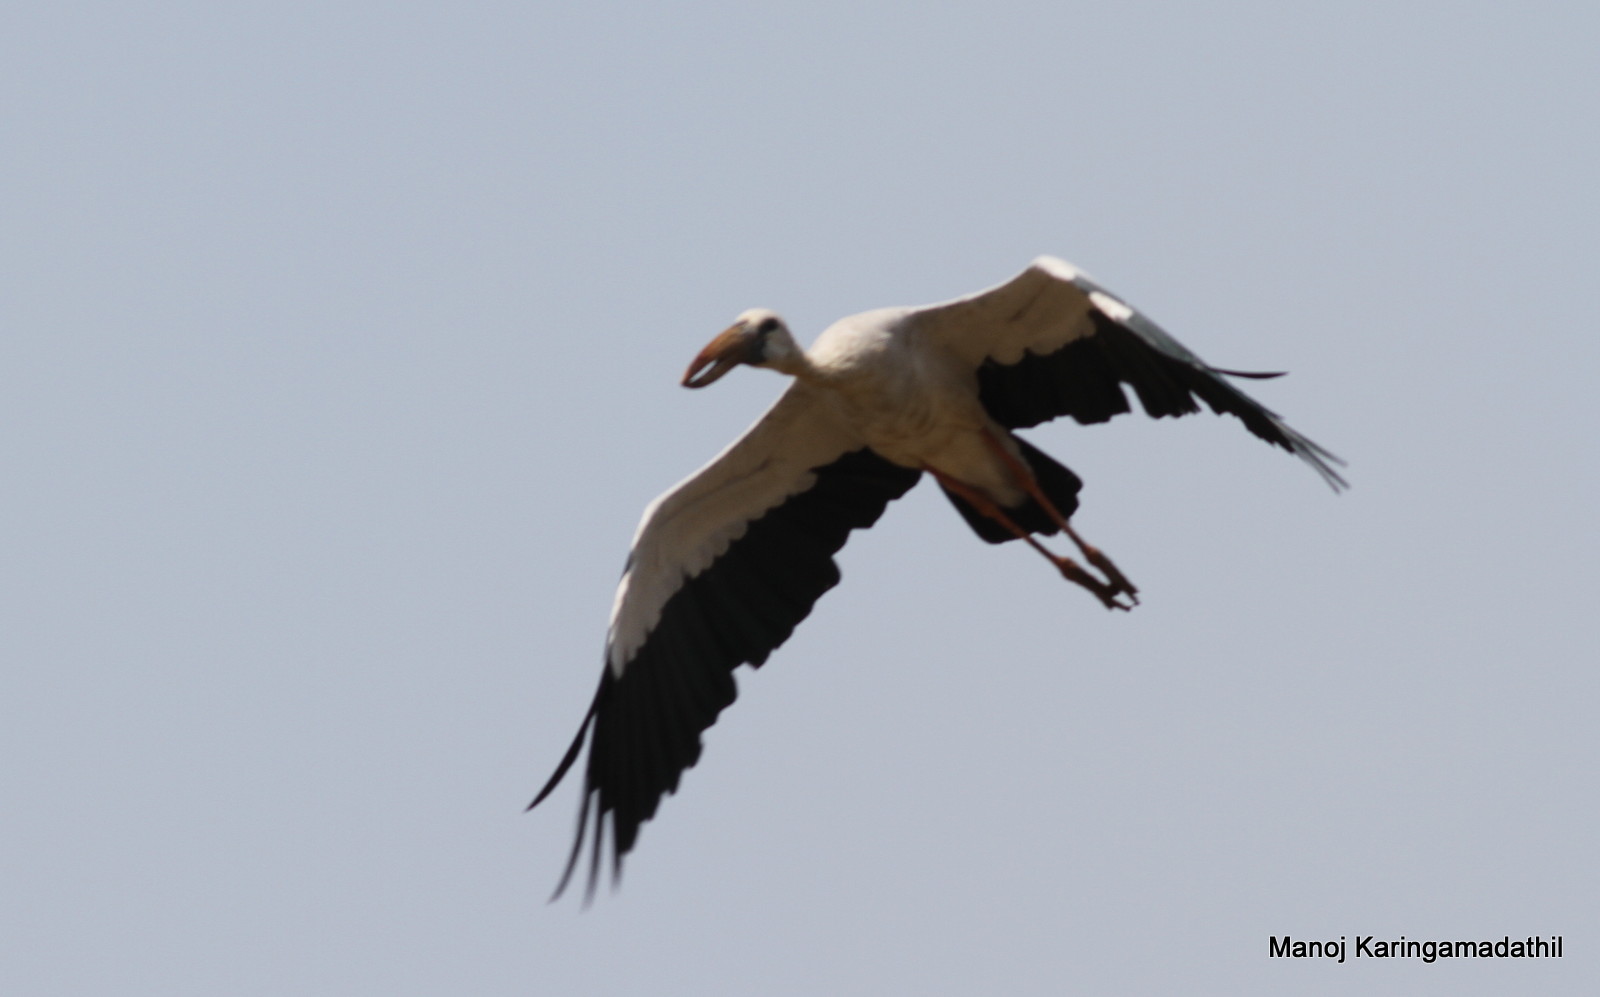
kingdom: Animalia
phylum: Chordata
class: Aves
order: Ciconiiformes
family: Ciconiidae
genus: Anastomus
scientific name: Anastomus oscitans
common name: Asian openbill
